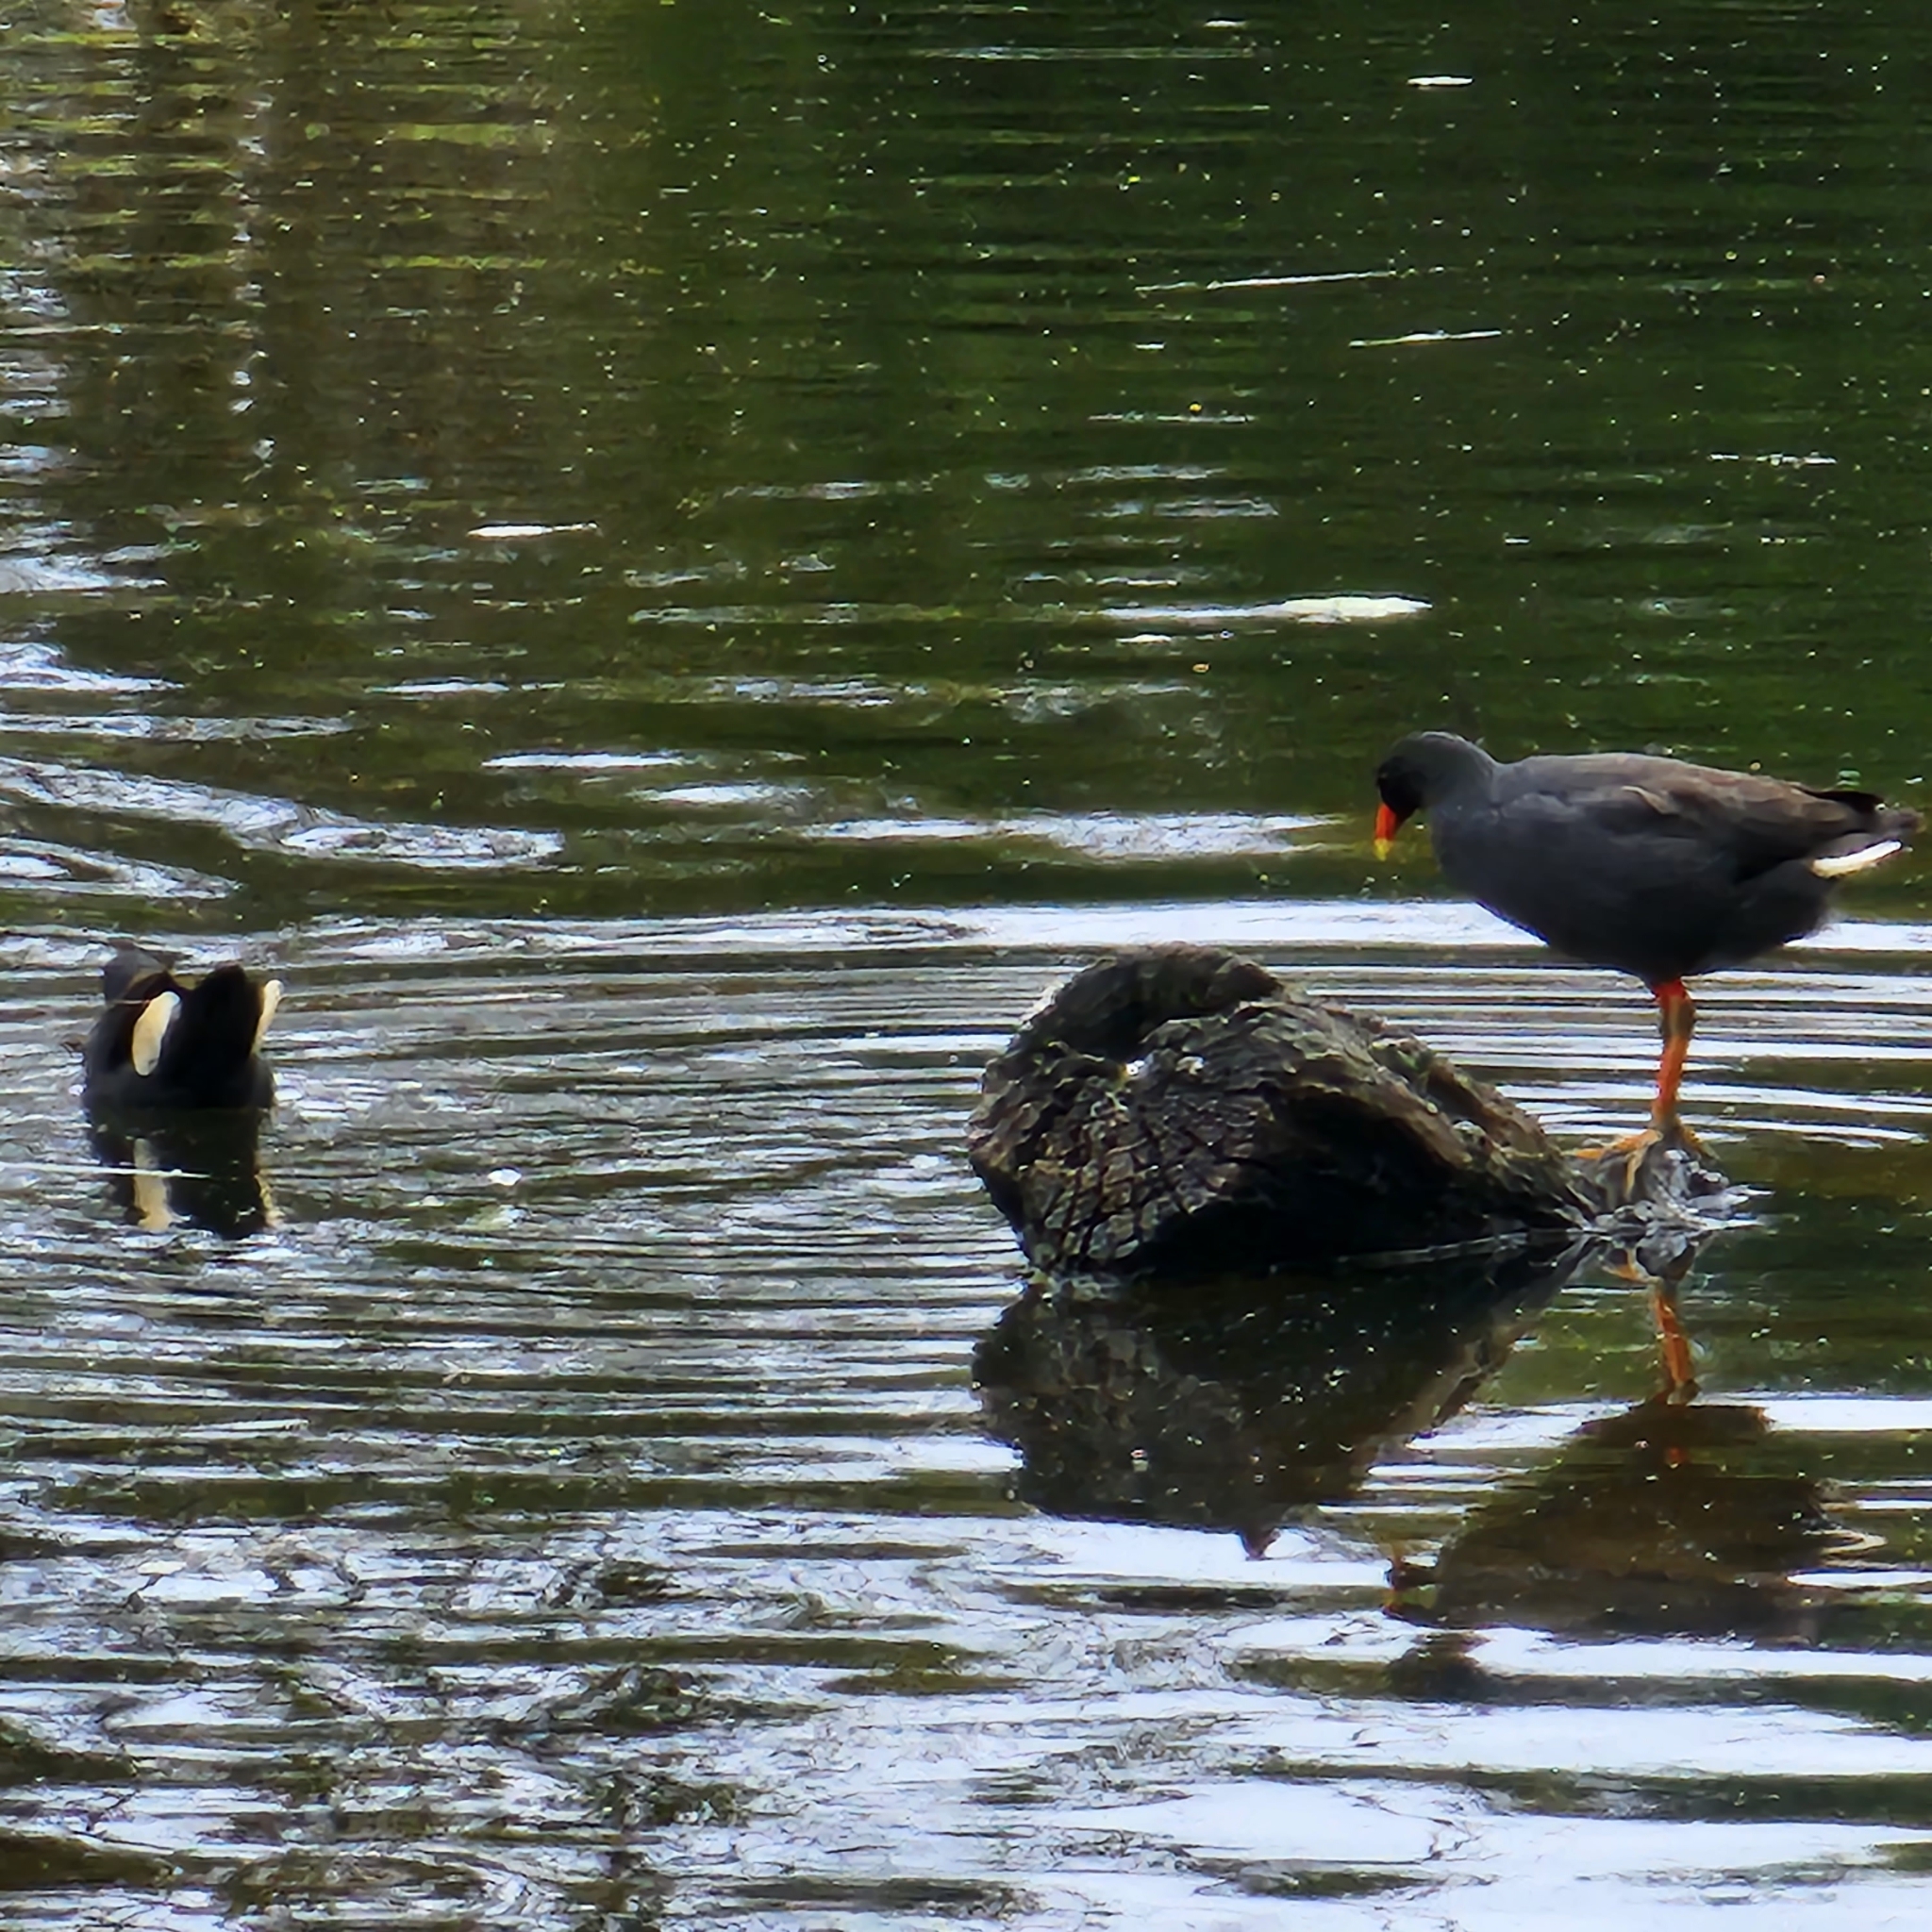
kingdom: Animalia
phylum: Chordata
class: Aves
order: Gruiformes
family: Rallidae
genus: Gallinula
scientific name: Gallinula tenebrosa
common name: Dusky moorhen
